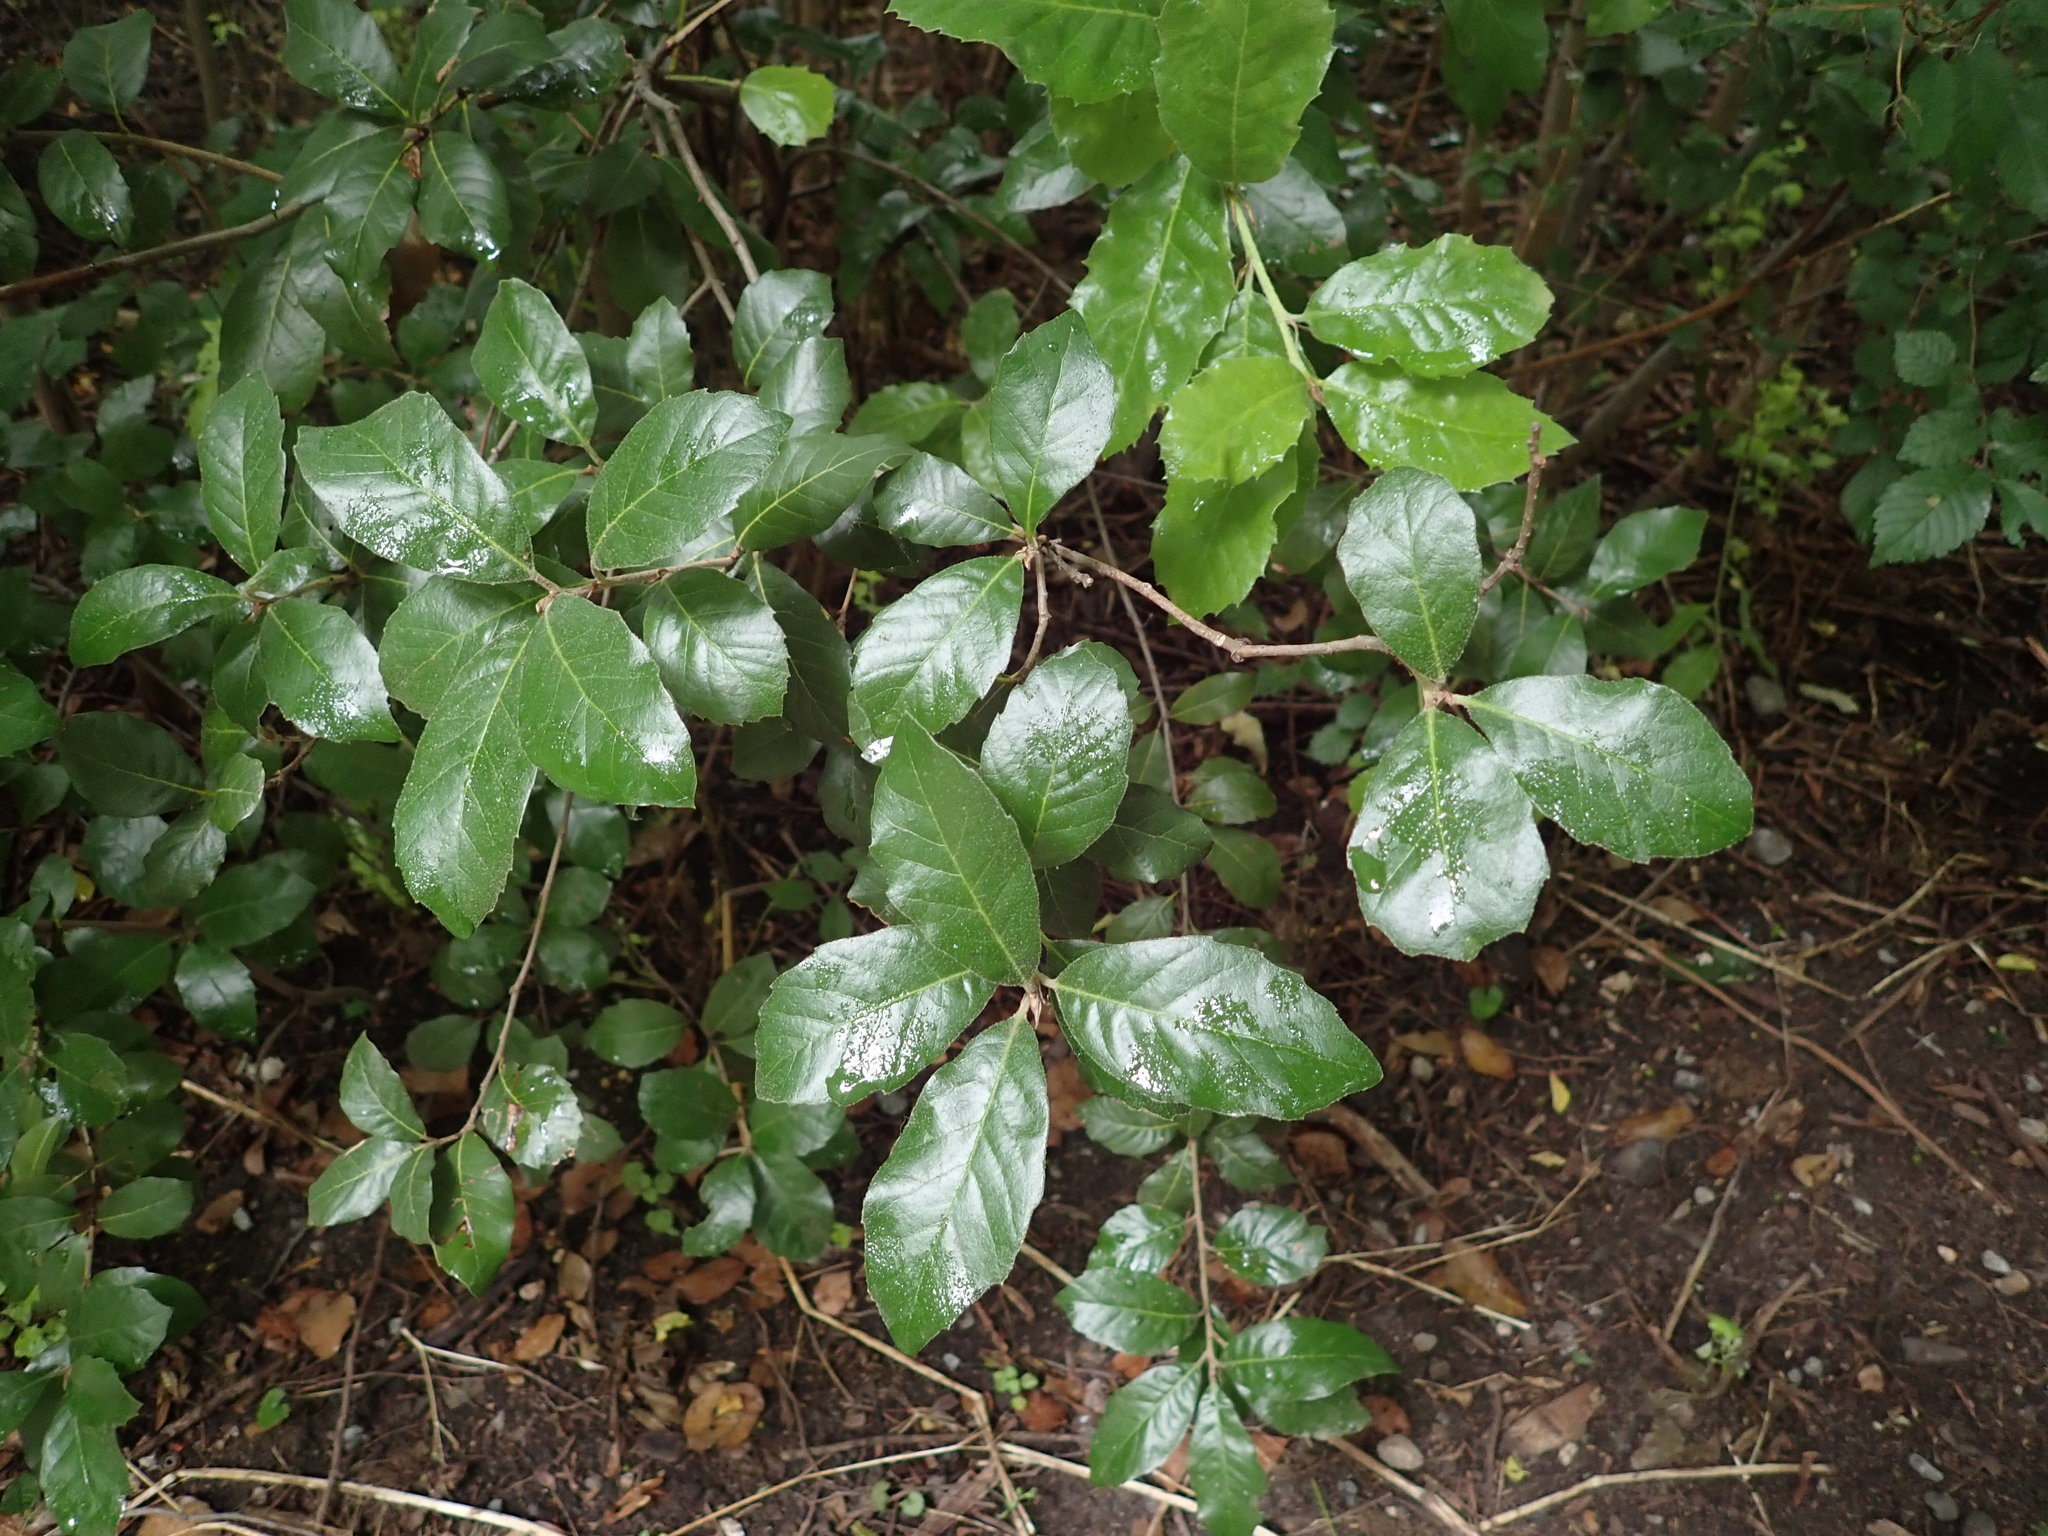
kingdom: Plantae
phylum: Tracheophyta
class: Magnoliopsida
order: Fagales
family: Fagaceae
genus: Quercus
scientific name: Quercus ilex
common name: Evergreen oak
